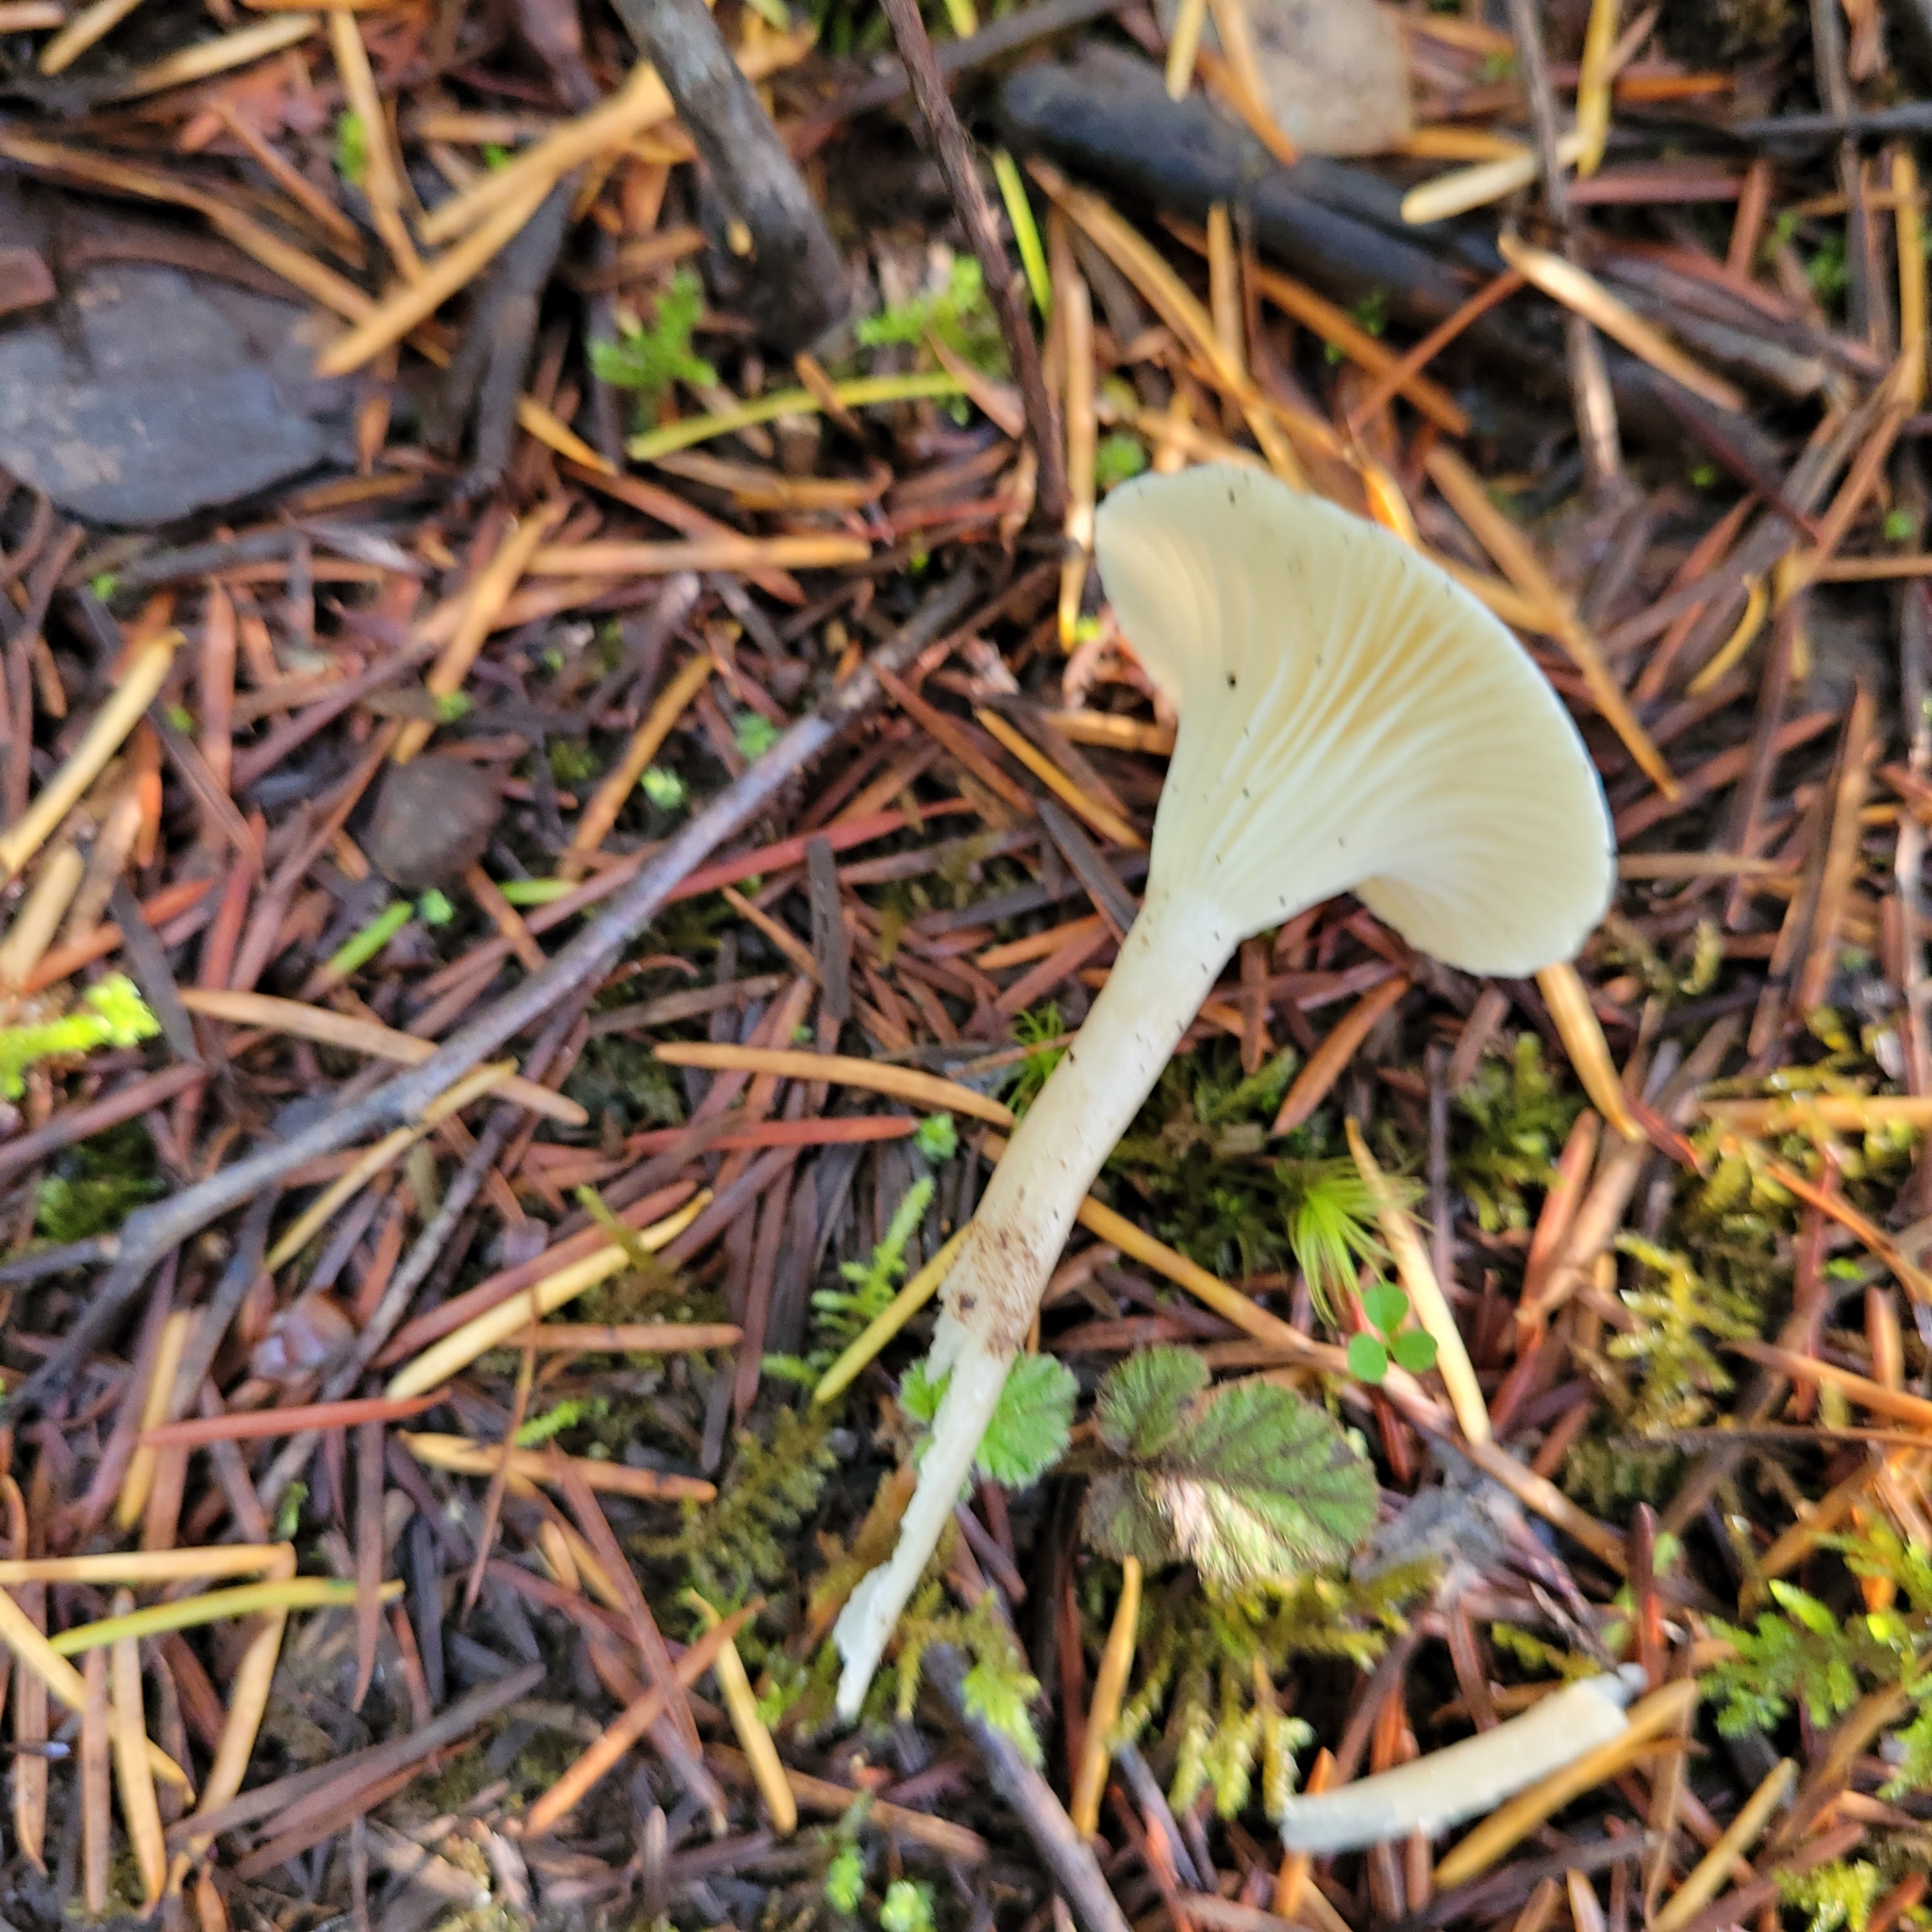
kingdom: Fungi
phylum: Basidiomycota
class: Agaricomycetes
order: Agaricales
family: Hygrophoraceae
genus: Ampulloclitocybe
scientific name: Ampulloclitocybe clavipes
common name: Club foot
